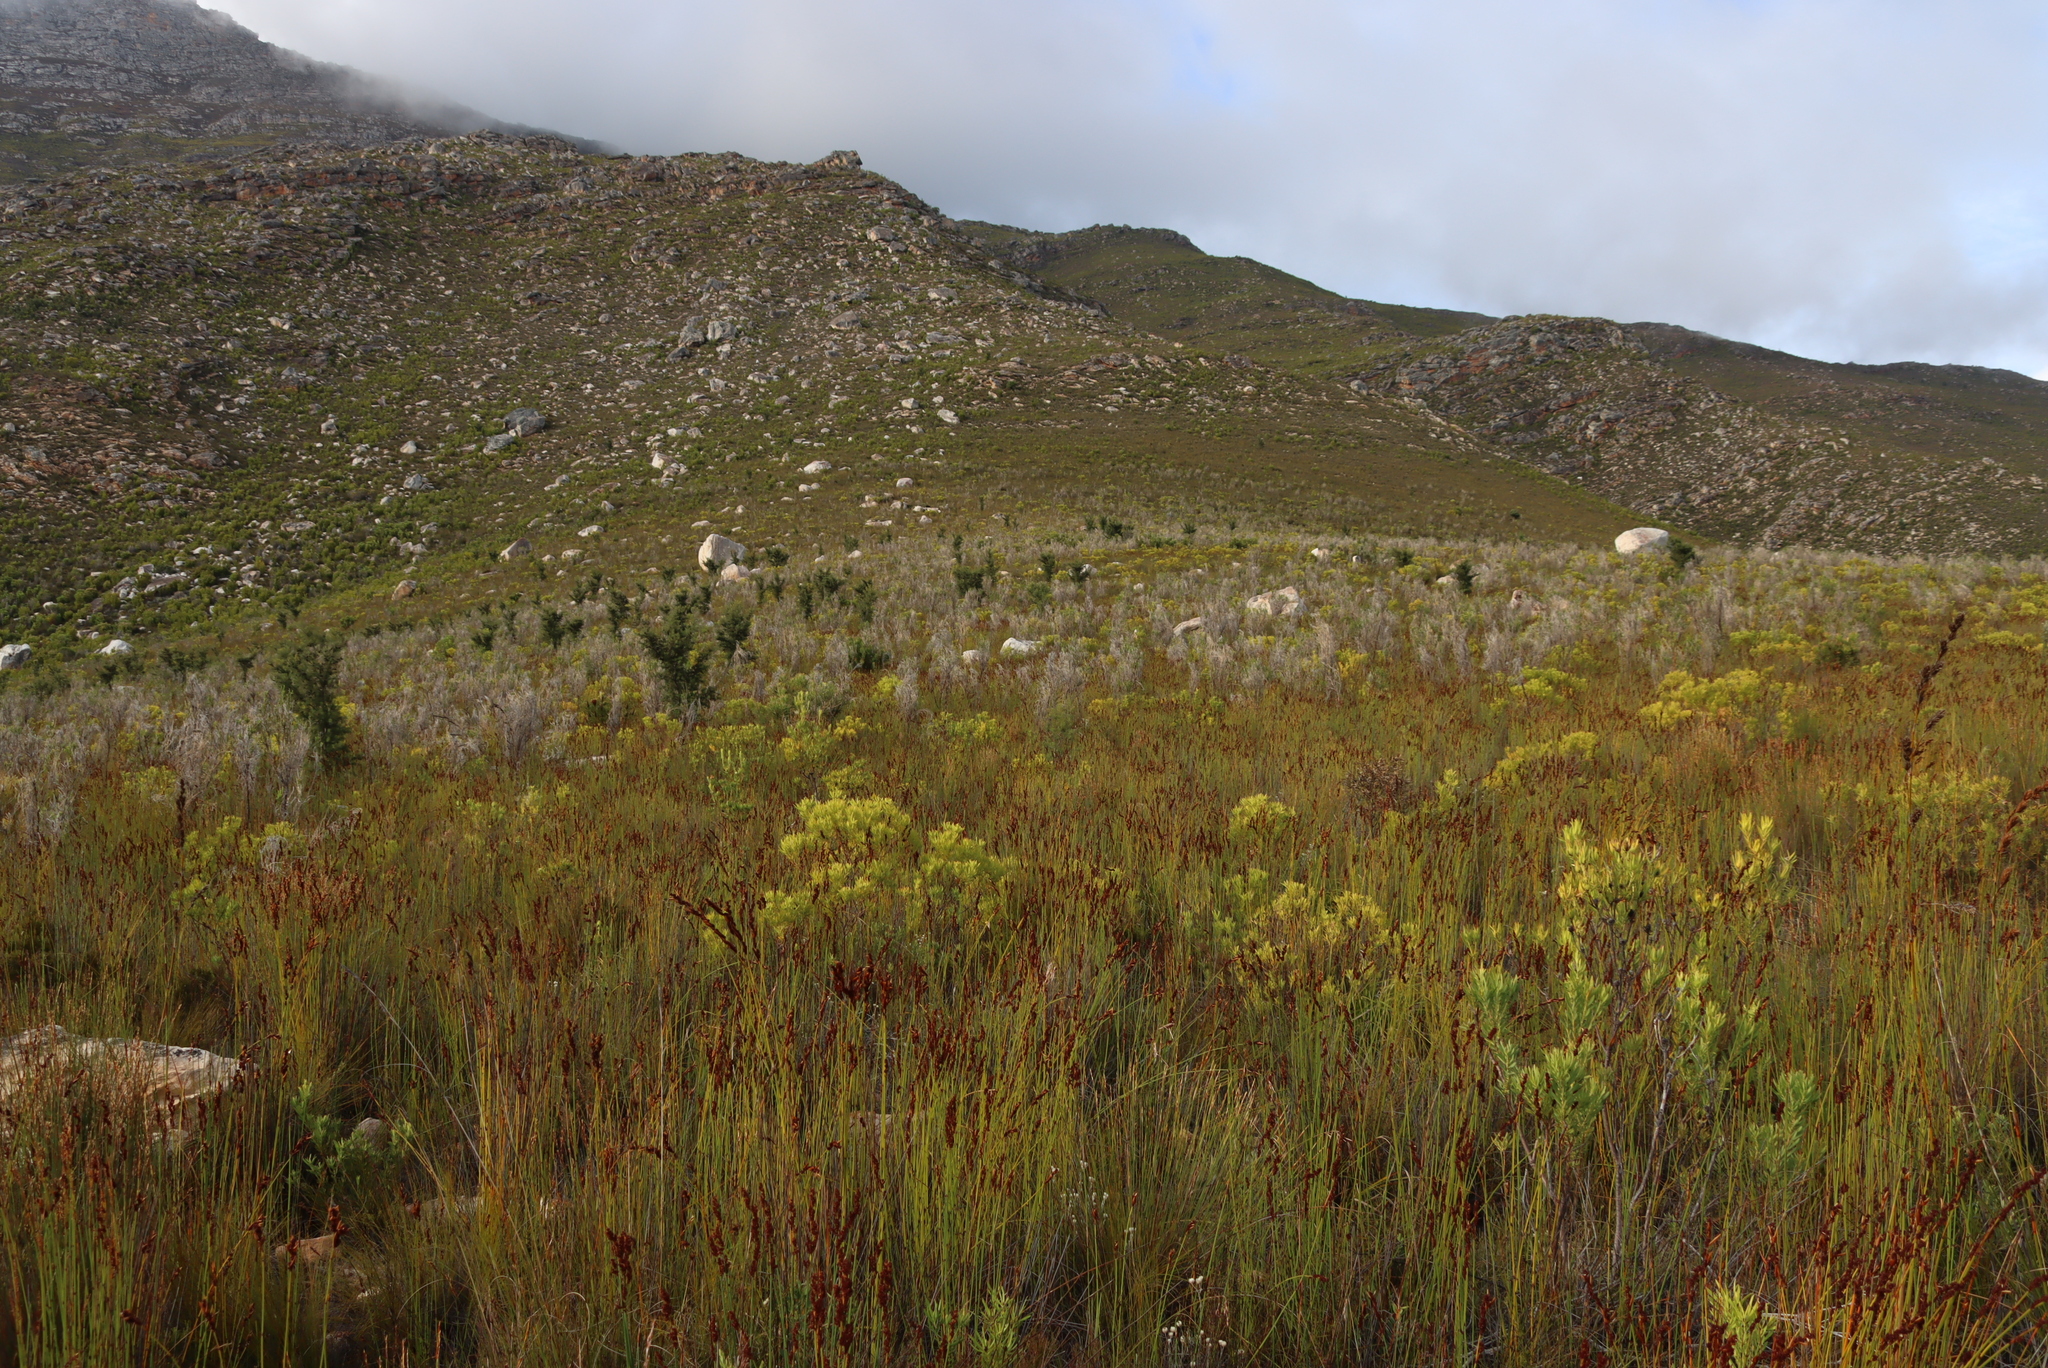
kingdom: Plantae
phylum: Tracheophyta
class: Magnoliopsida
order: Proteales
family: Proteaceae
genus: Hakea
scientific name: Hakea sericea
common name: Needle bush
